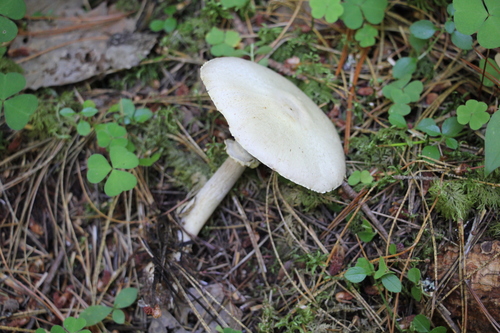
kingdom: Fungi
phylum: Basidiomycota
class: Agaricomycetes
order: Agaricales
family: Agaricaceae
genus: Agaricus
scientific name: Agaricus sylvicola
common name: Wood mushroom
